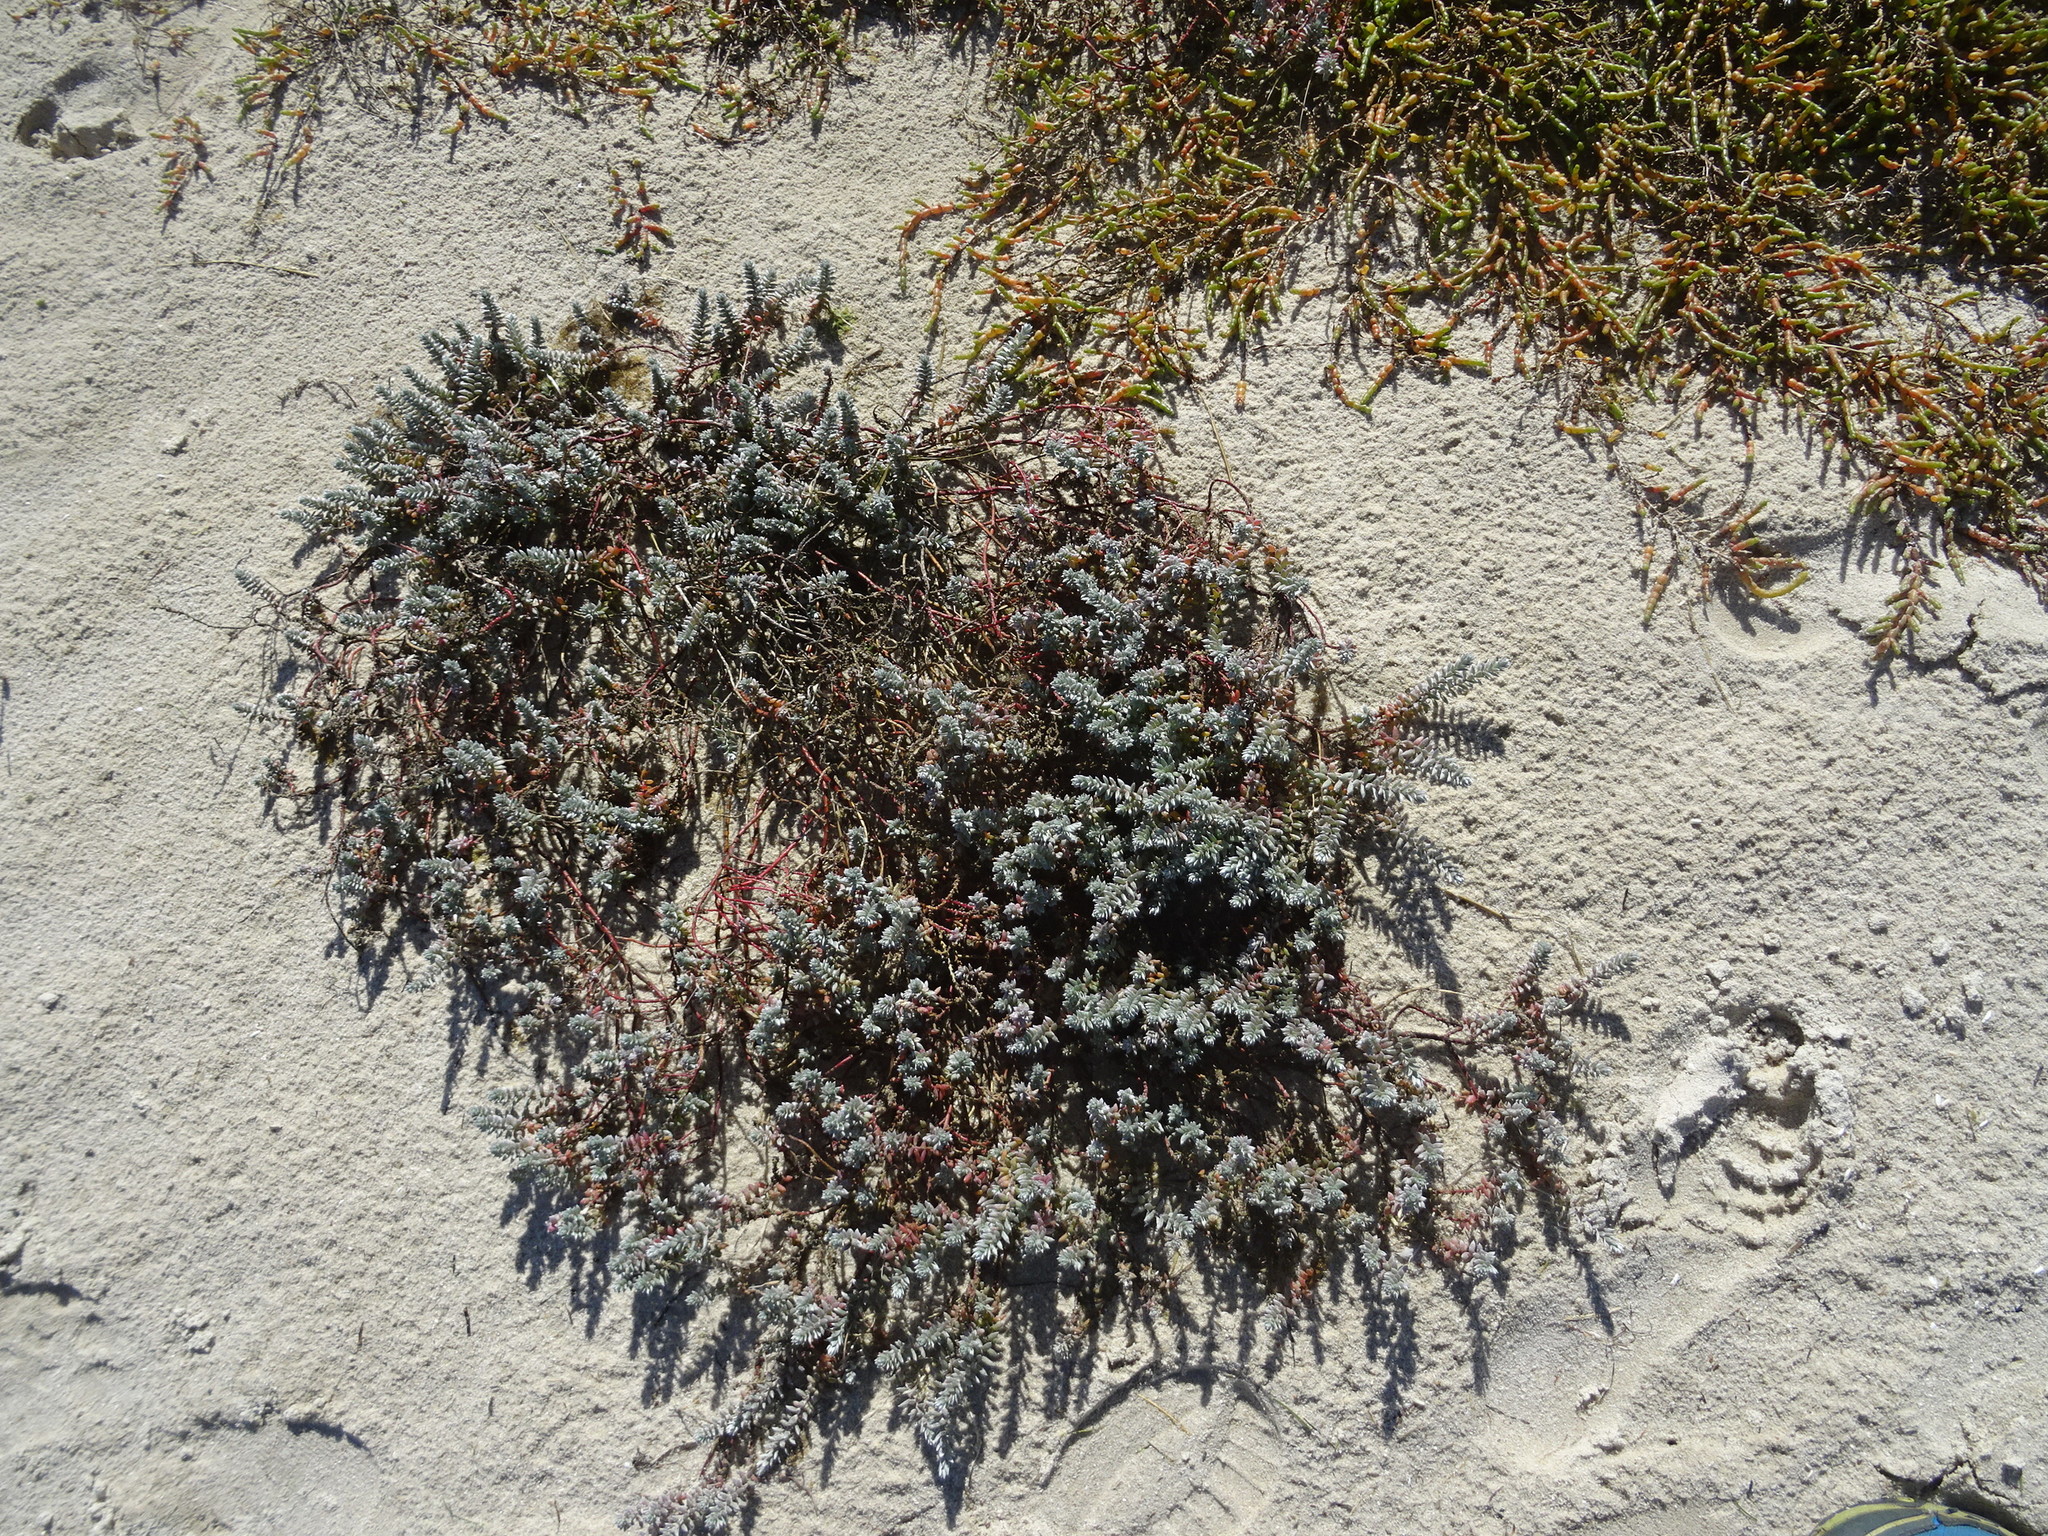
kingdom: Plantae
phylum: Tracheophyta
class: Magnoliopsida
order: Caryophyllales
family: Amaranthaceae
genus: Chenolea
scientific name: Chenolea diffusa
